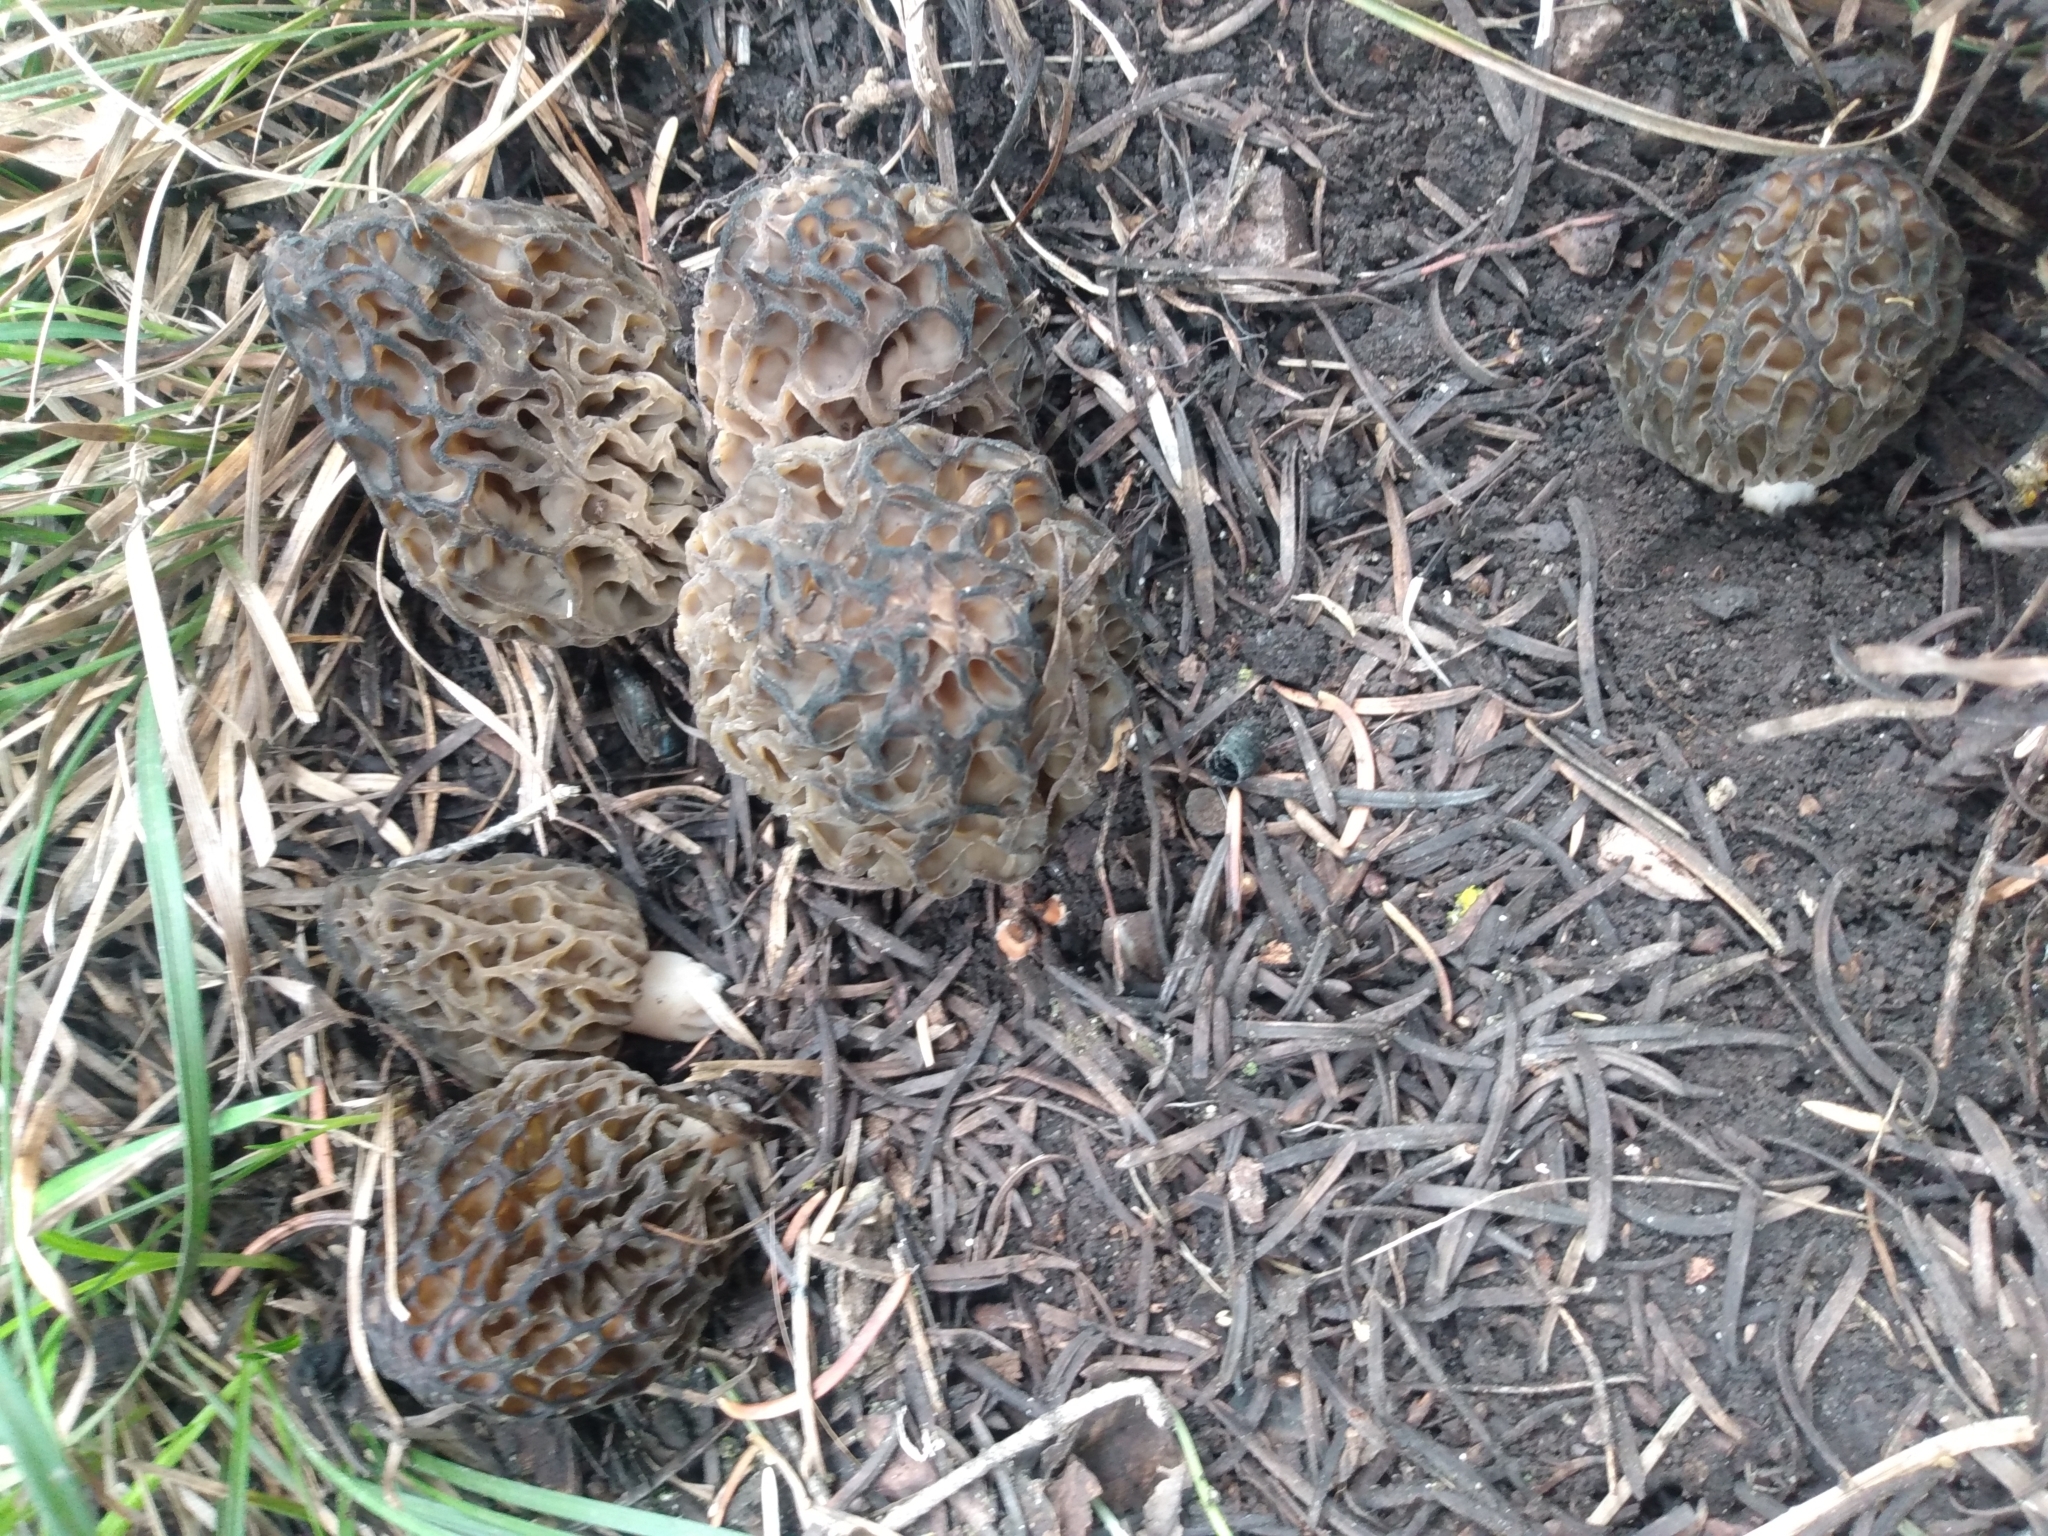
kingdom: Fungi
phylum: Ascomycota
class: Pezizomycetes
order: Pezizales
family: Morchellaceae
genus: Morchella
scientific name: Morchella snyderi
